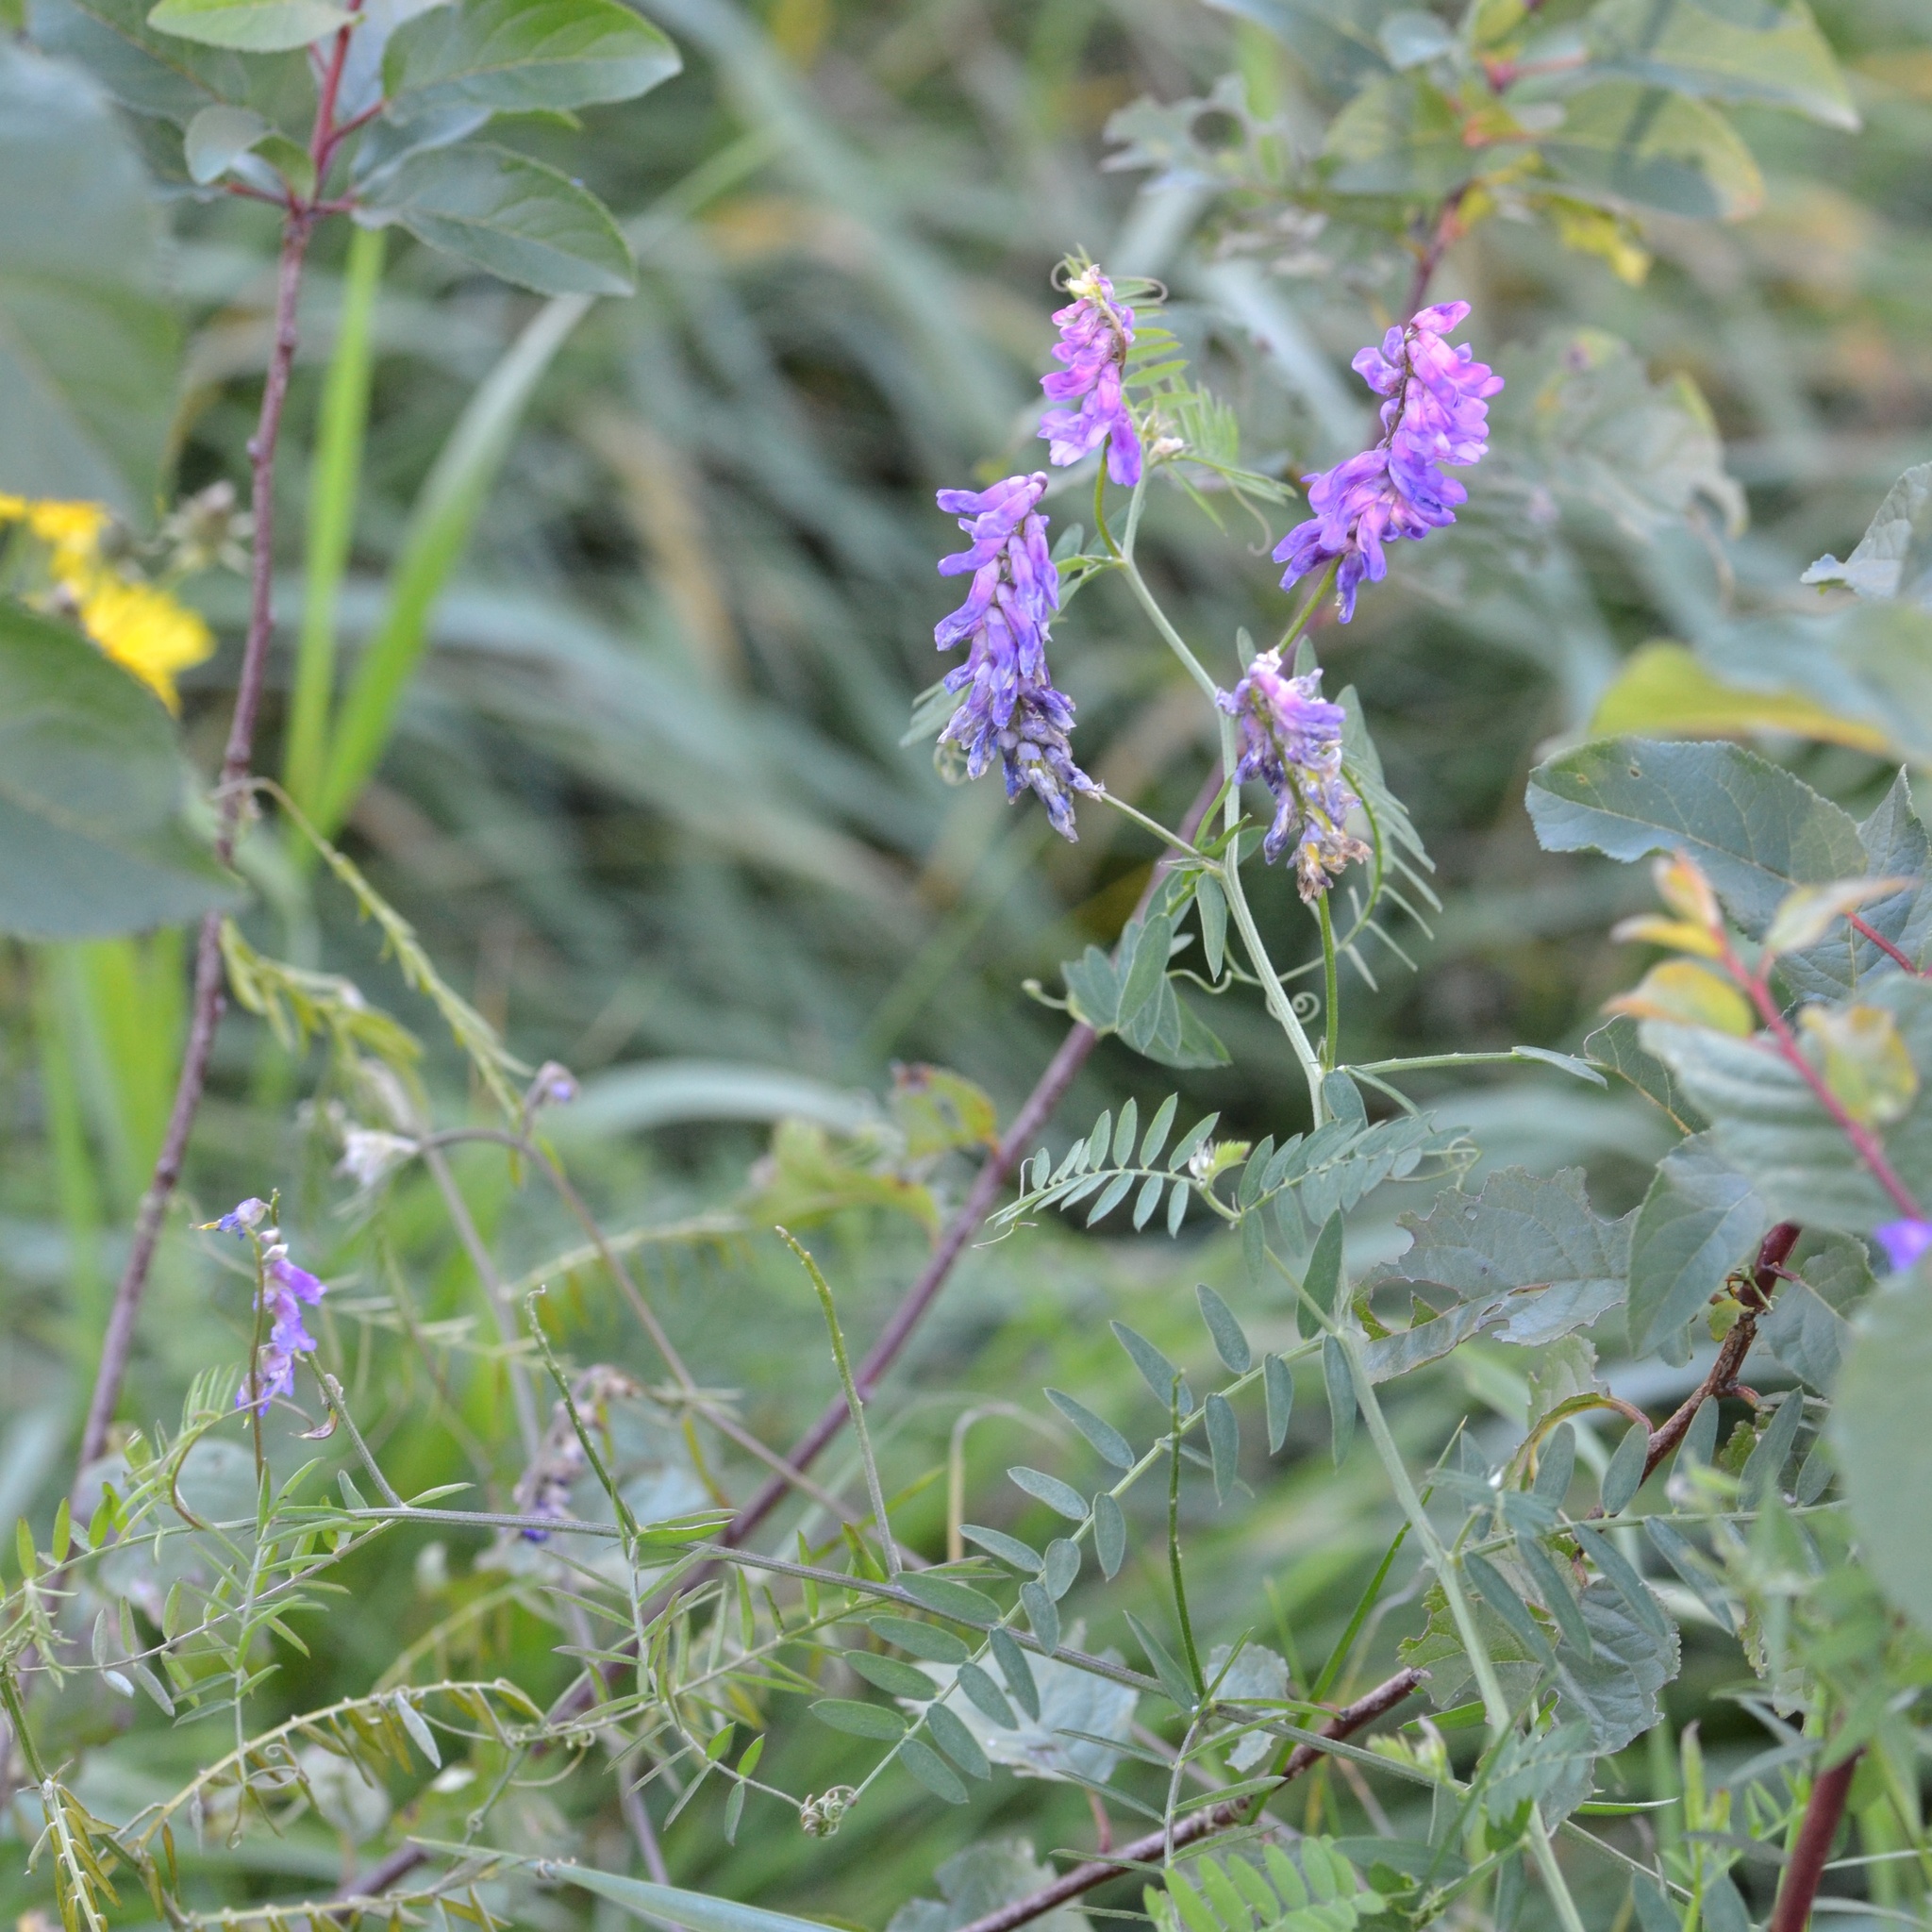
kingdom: Plantae
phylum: Tracheophyta
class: Magnoliopsida
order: Fabales
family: Fabaceae
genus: Vicia
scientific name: Vicia cracca
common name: Bird vetch
